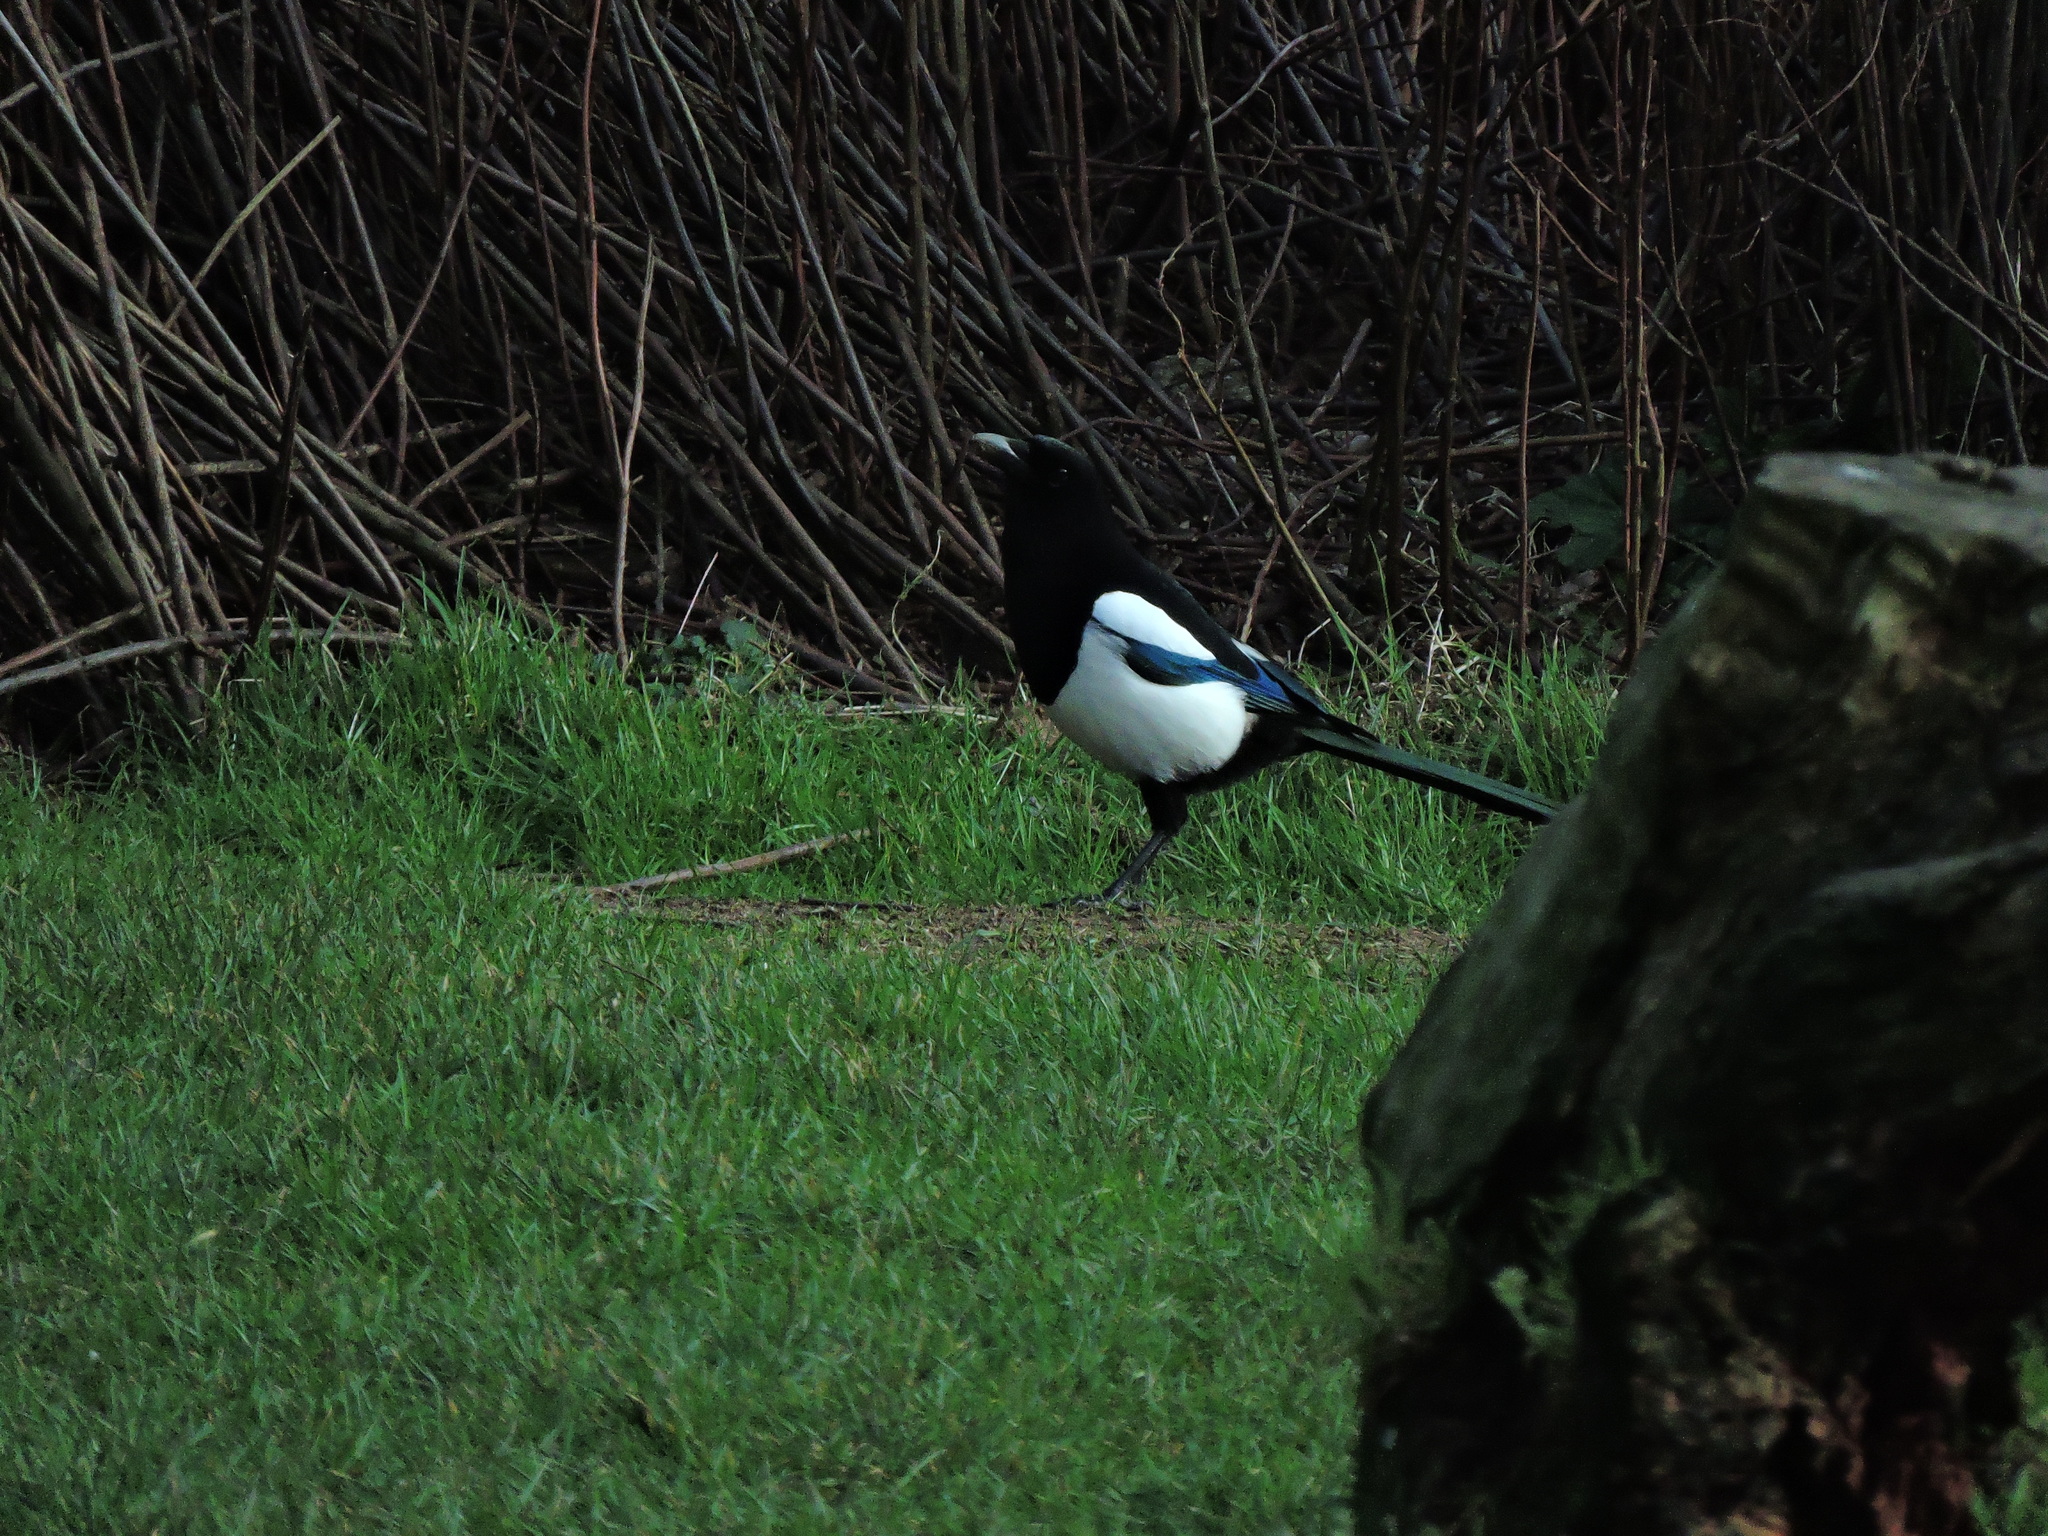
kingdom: Animalia
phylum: Chordata
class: Aves
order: Passeriformes
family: Corvidae
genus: Pica
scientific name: Pica pica
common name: Eurasian magpie
